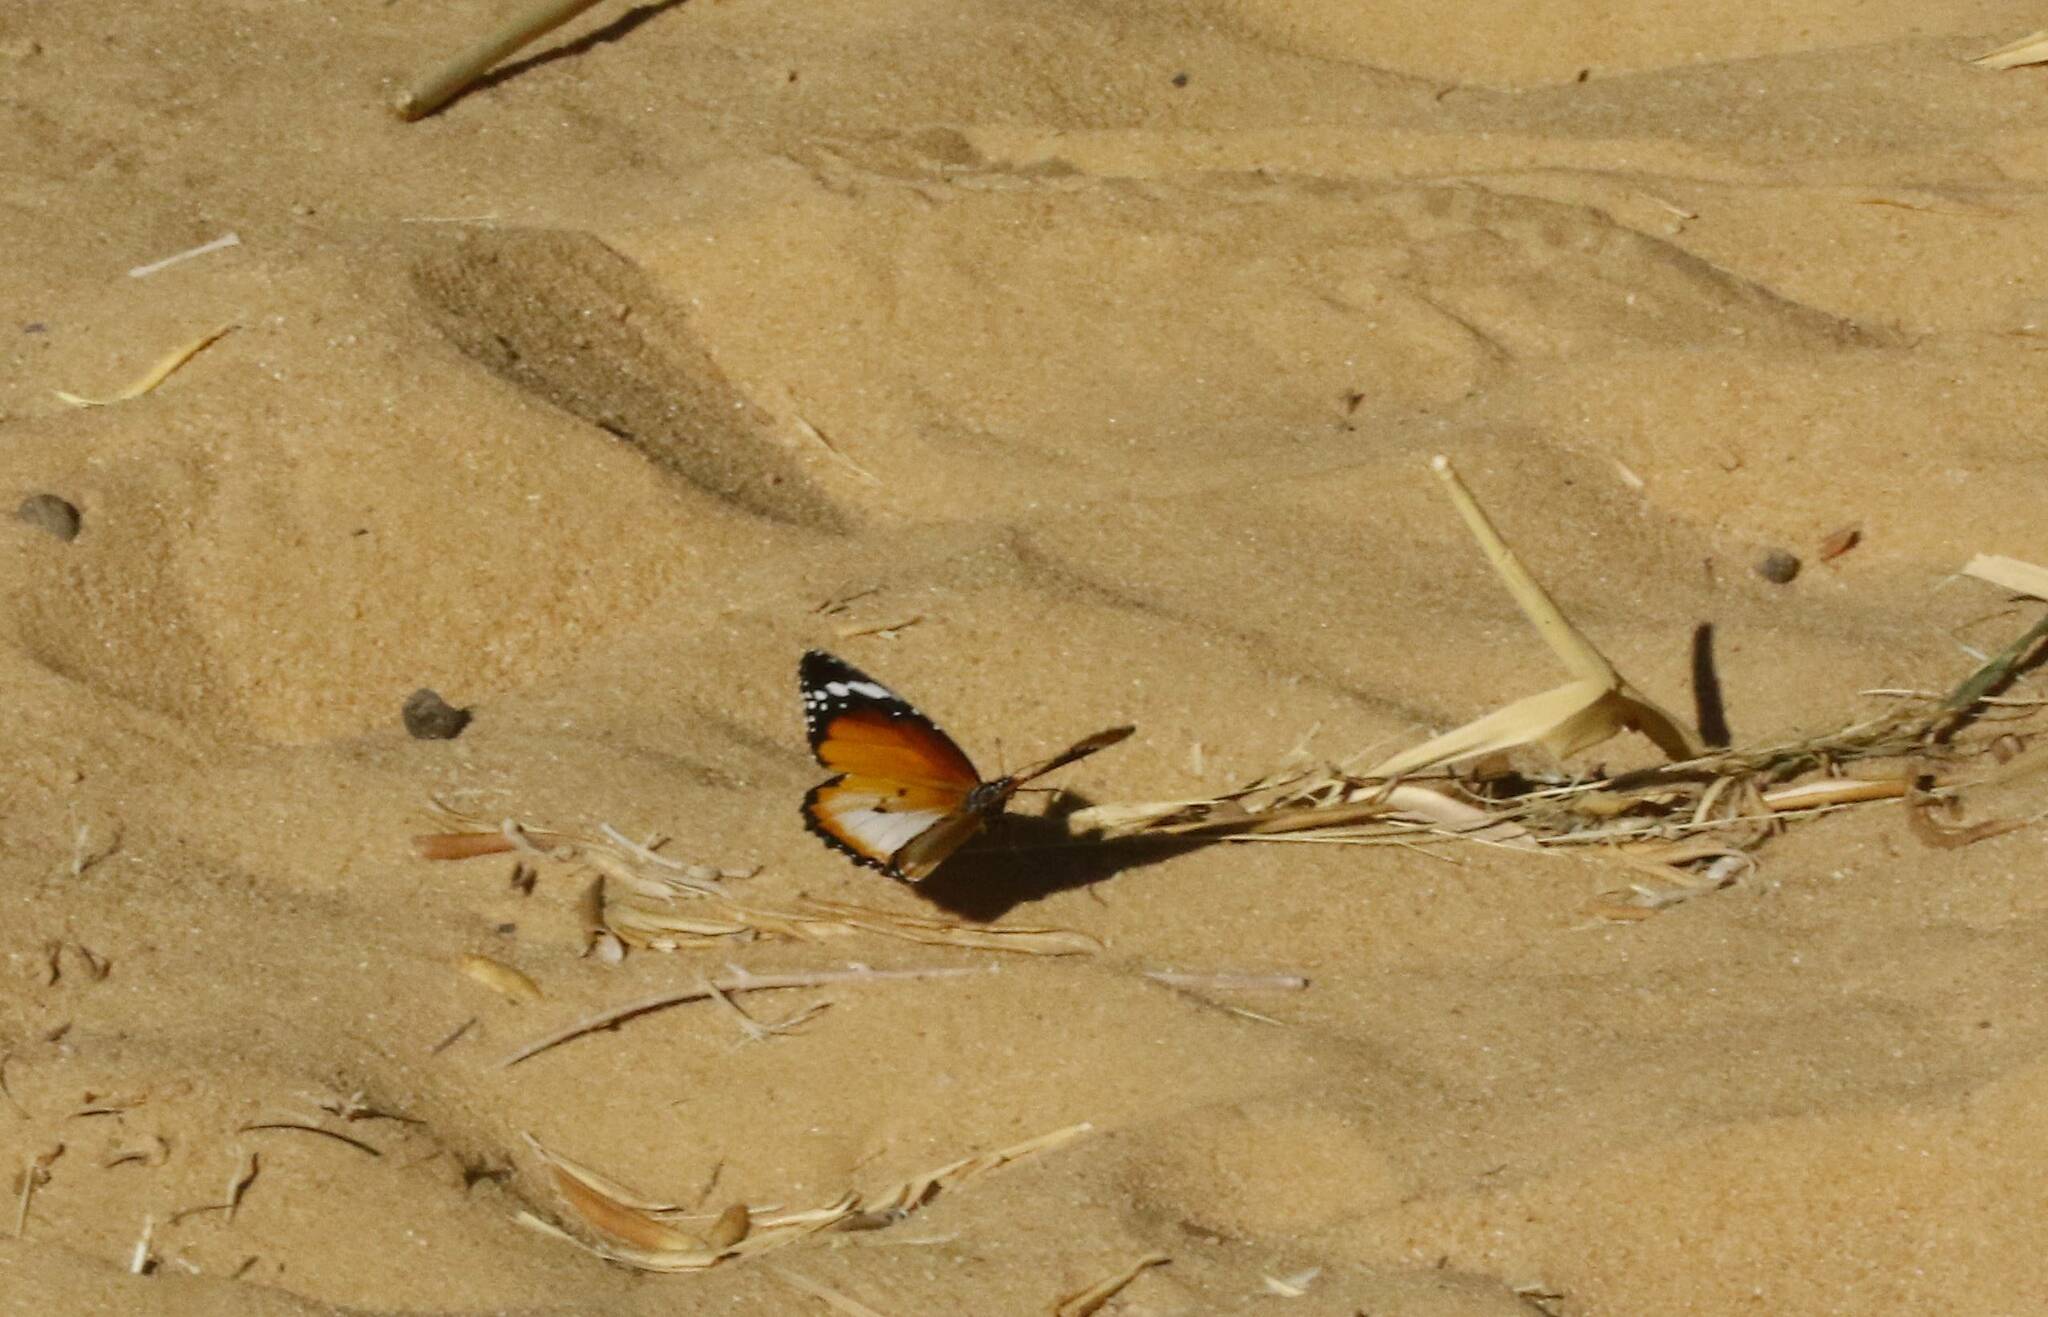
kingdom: Animalia
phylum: Arthropoda
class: Insecta
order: Lepidoptera
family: Nymphalidae
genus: Danaus
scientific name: Danaus chrysippus
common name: Plain tiger
